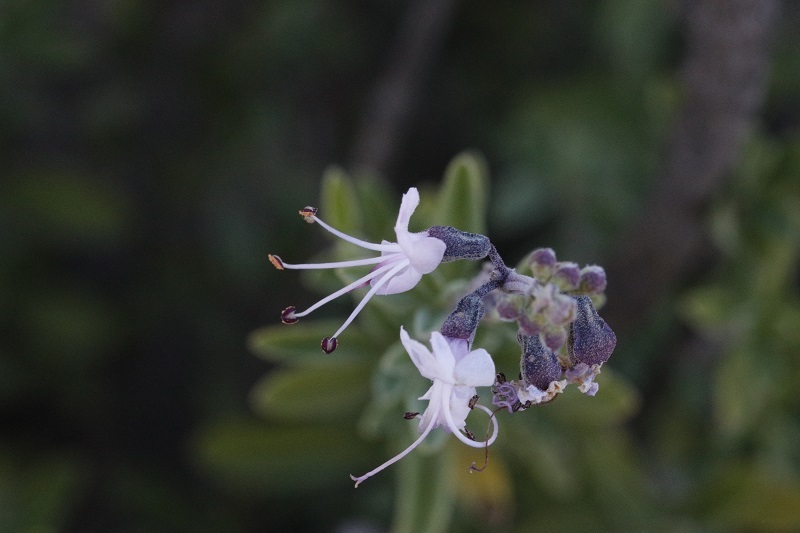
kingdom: Plantae
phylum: Tracheophyta
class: Magnoliopsida
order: Lamiales
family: Lamiaceae
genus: Ocimum
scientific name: Ocimum burchellianum
